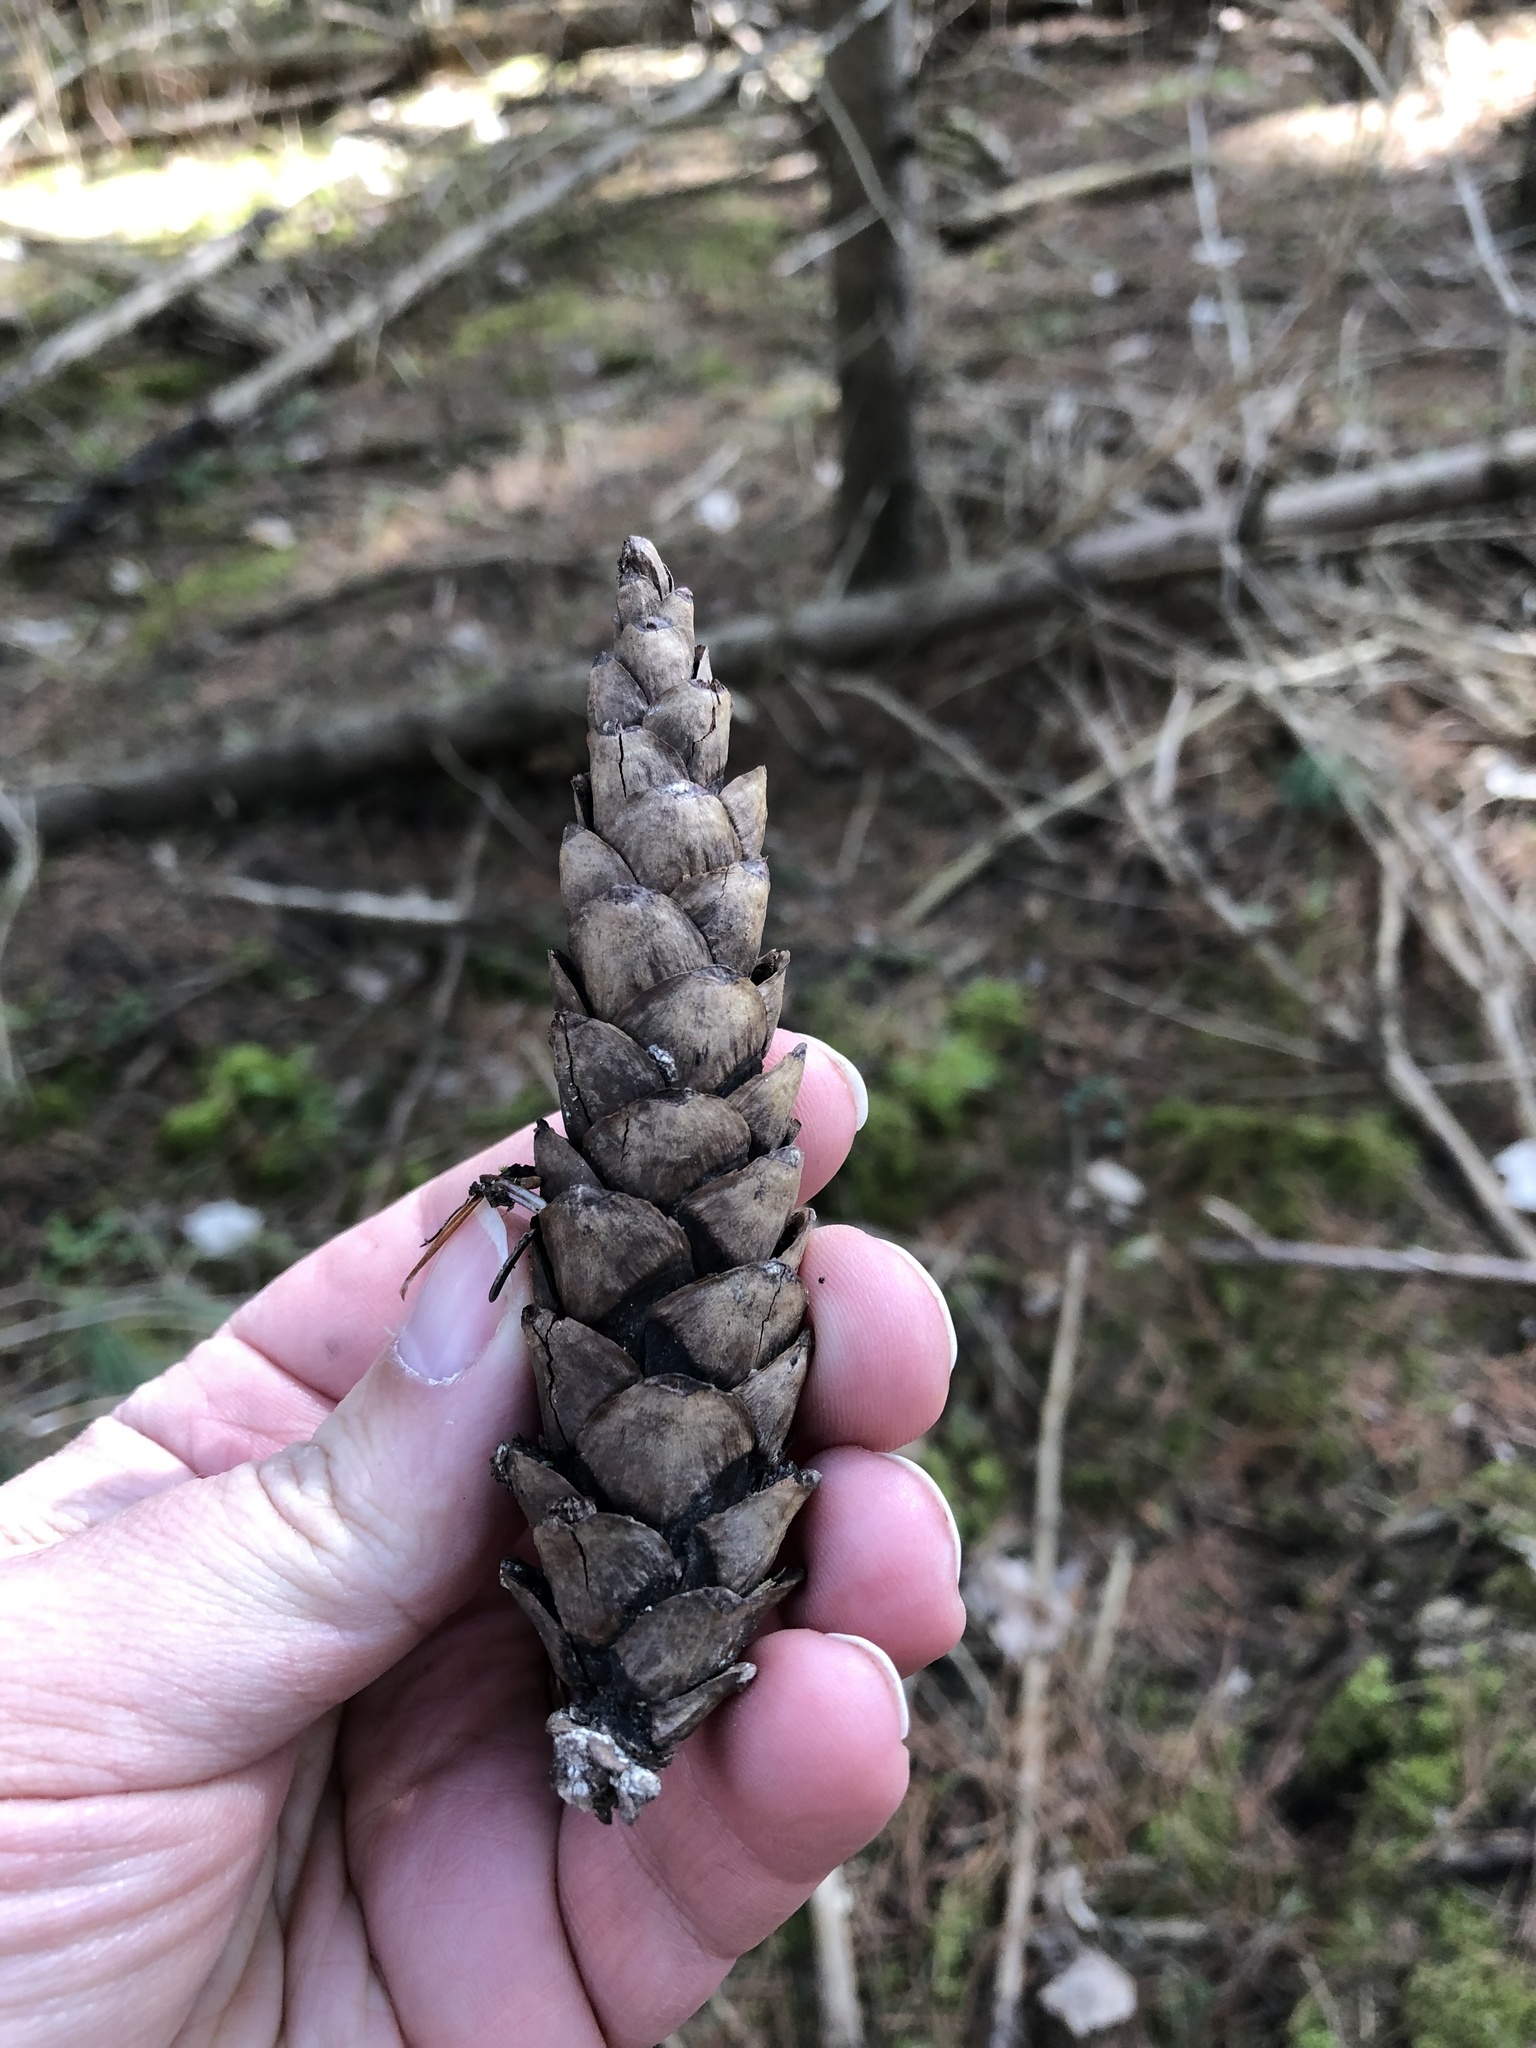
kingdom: Plantae
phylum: Tracheophyta
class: Pinopsida
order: Pinales
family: Pinaceae
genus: Pinus
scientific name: Pinus strobus
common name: Weymouth pine
